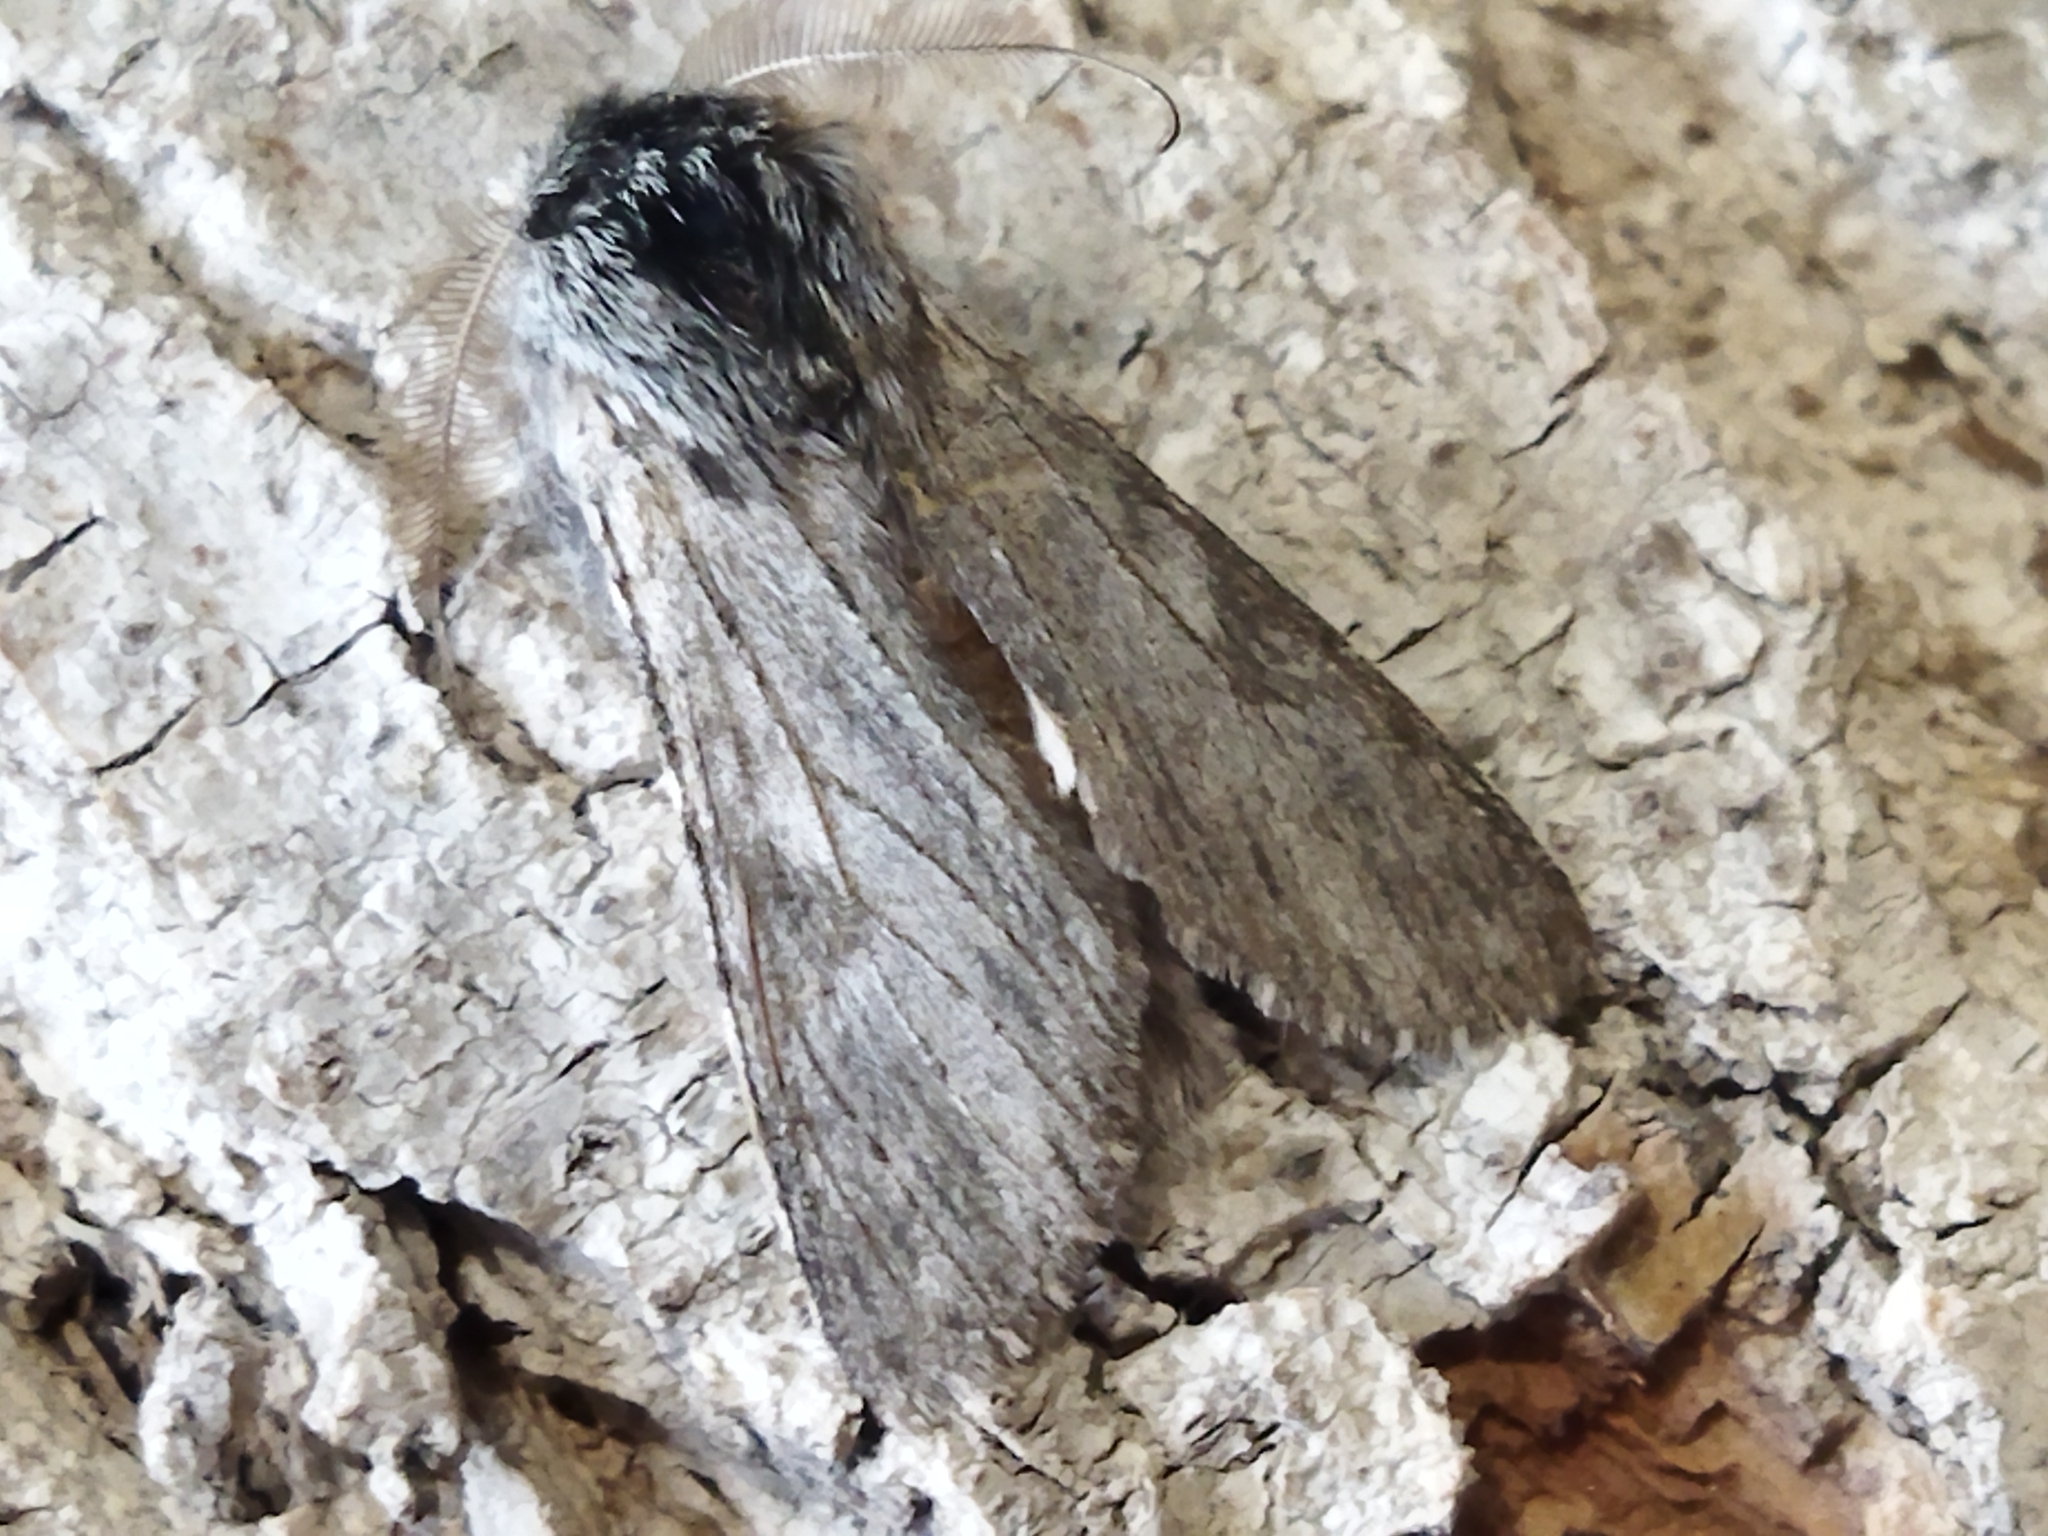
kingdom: Animalia
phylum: Arthropoda
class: Insecta
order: Lepidoptera
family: Notodontidae
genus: Dicranura
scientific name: Dicranura ulmi
